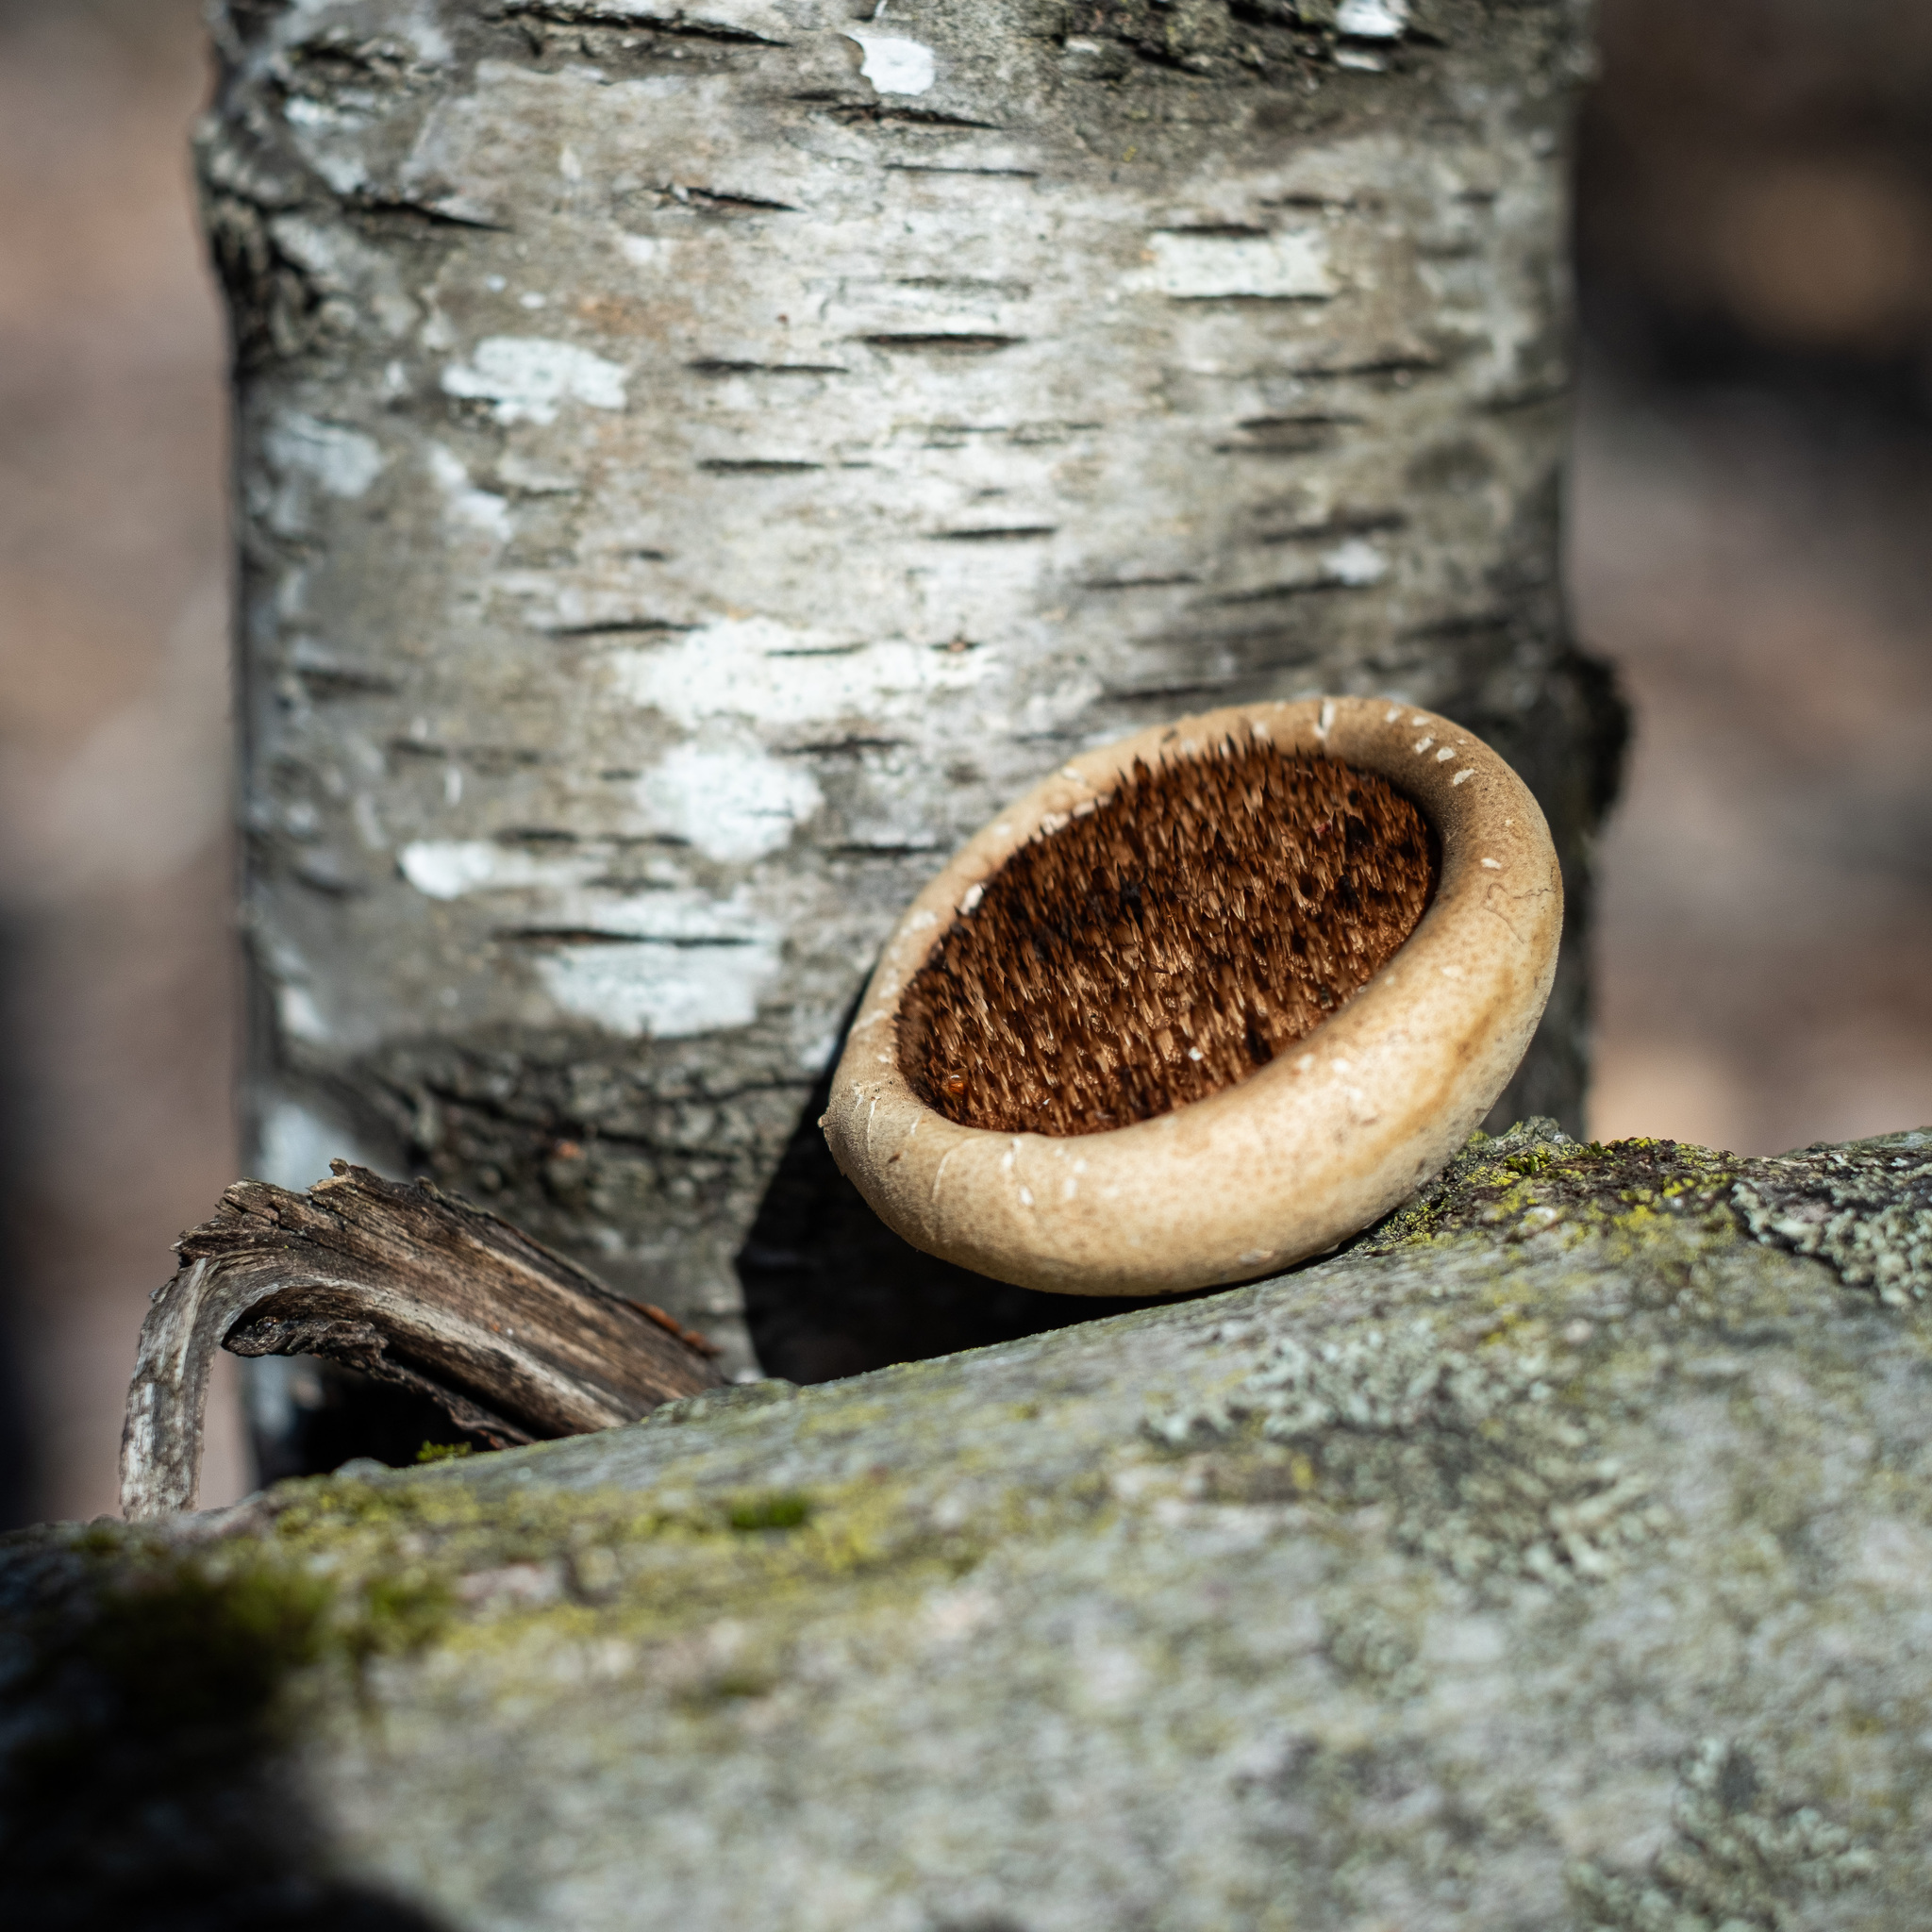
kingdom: Fungi
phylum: Basidiomycota
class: Agaricomycetes
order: Polyporales
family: Fomitopsidaceae
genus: Fomitopsis
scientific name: Fomitopsis betulina
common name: Birch polypore
